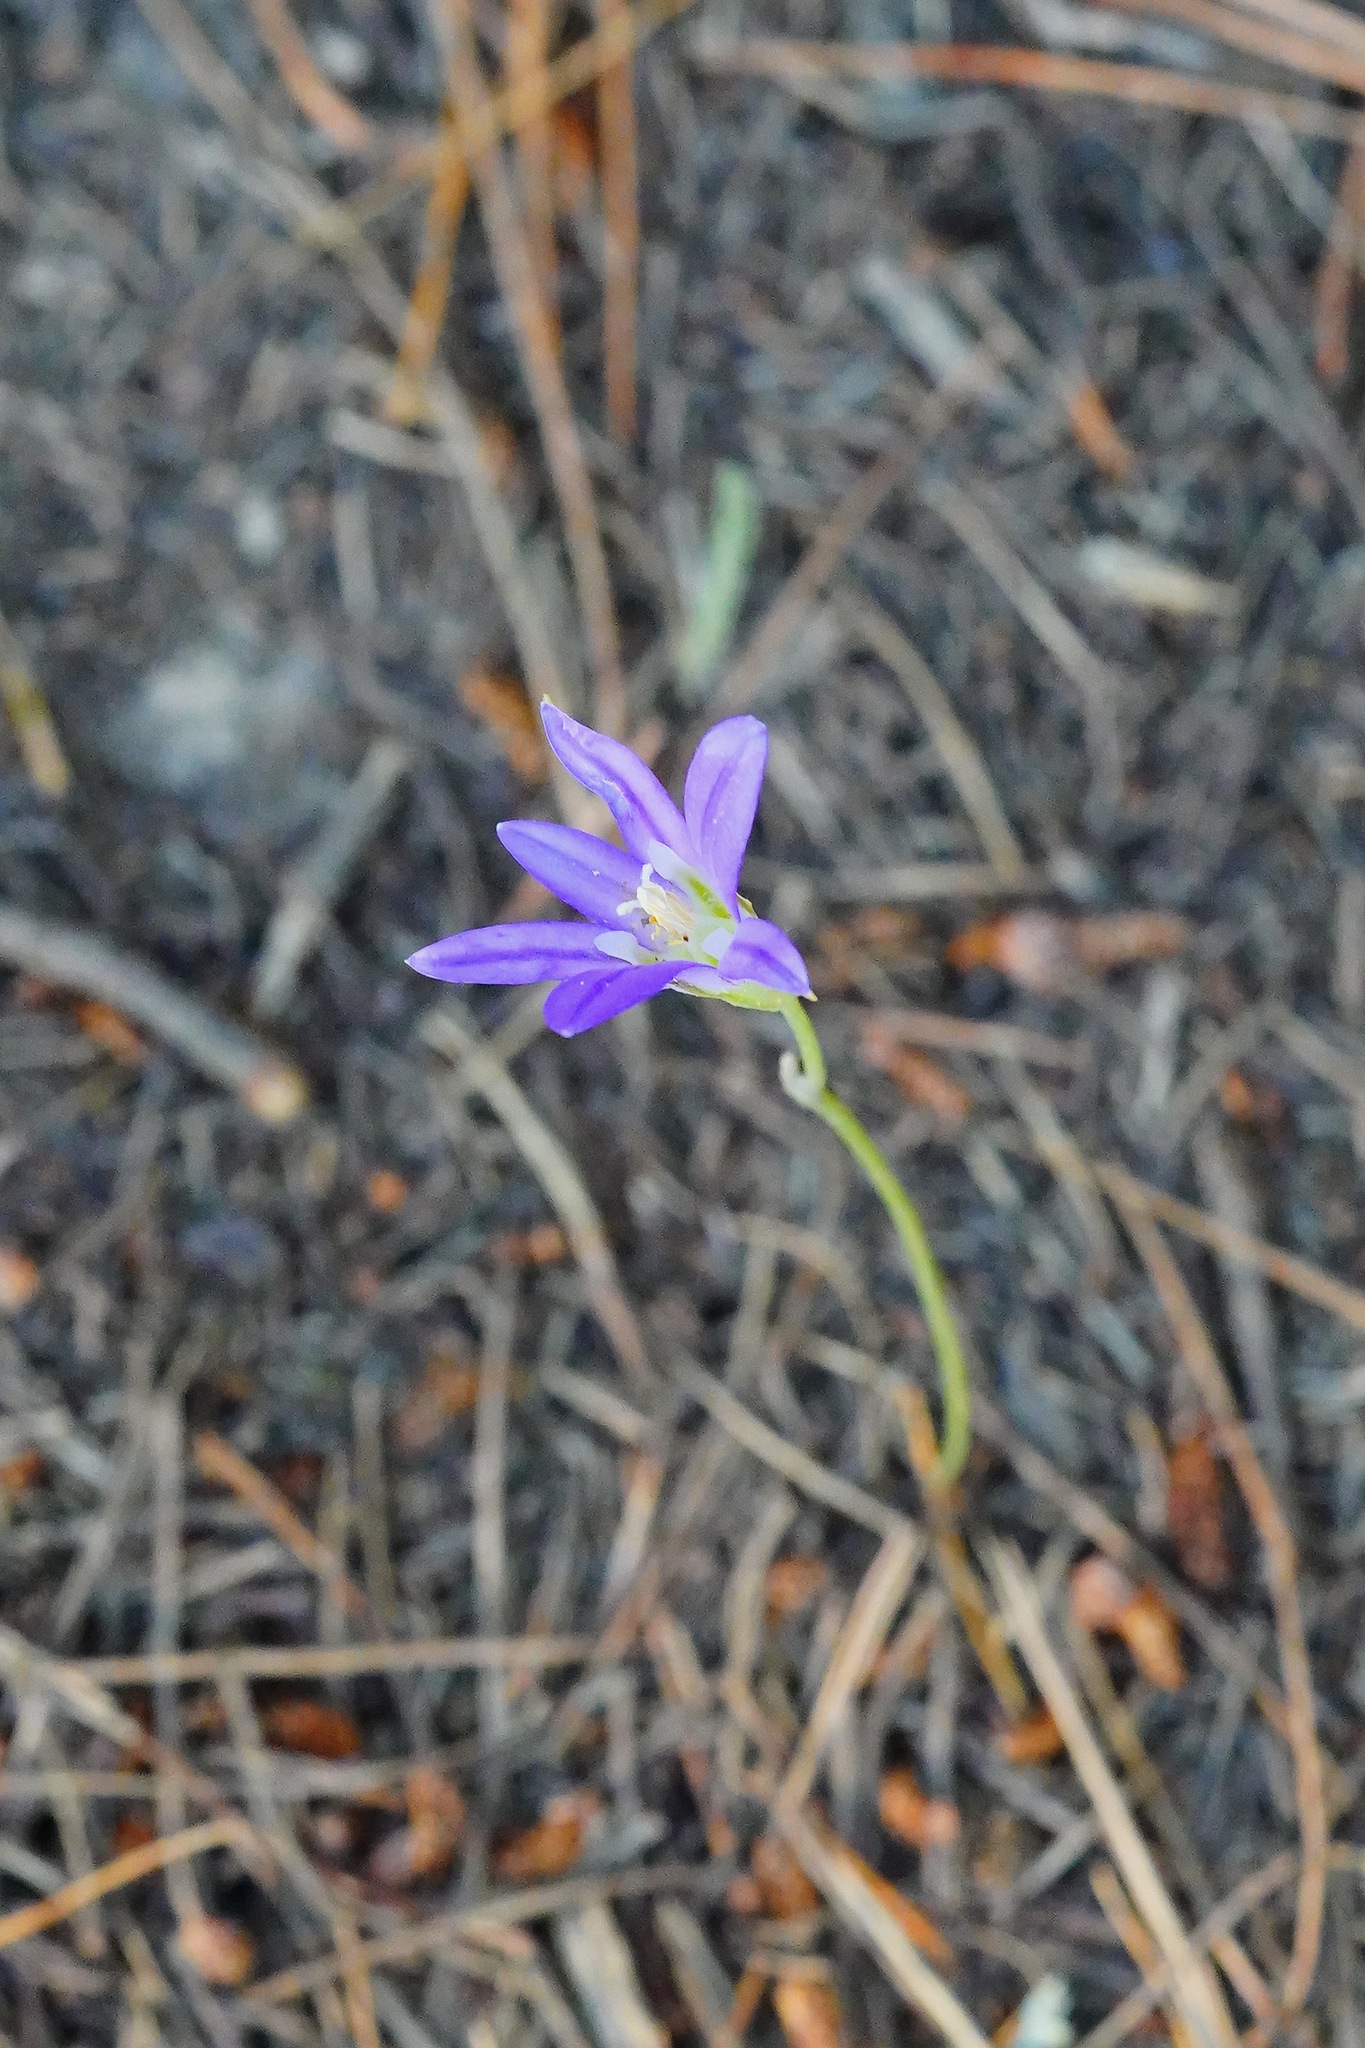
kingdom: Plantae
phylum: Tracheophyta
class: Liliopsida
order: Asparagales
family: Asparagaceae
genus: Brodiaea
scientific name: Brodiaea elegans
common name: Elegant cluster-lily
